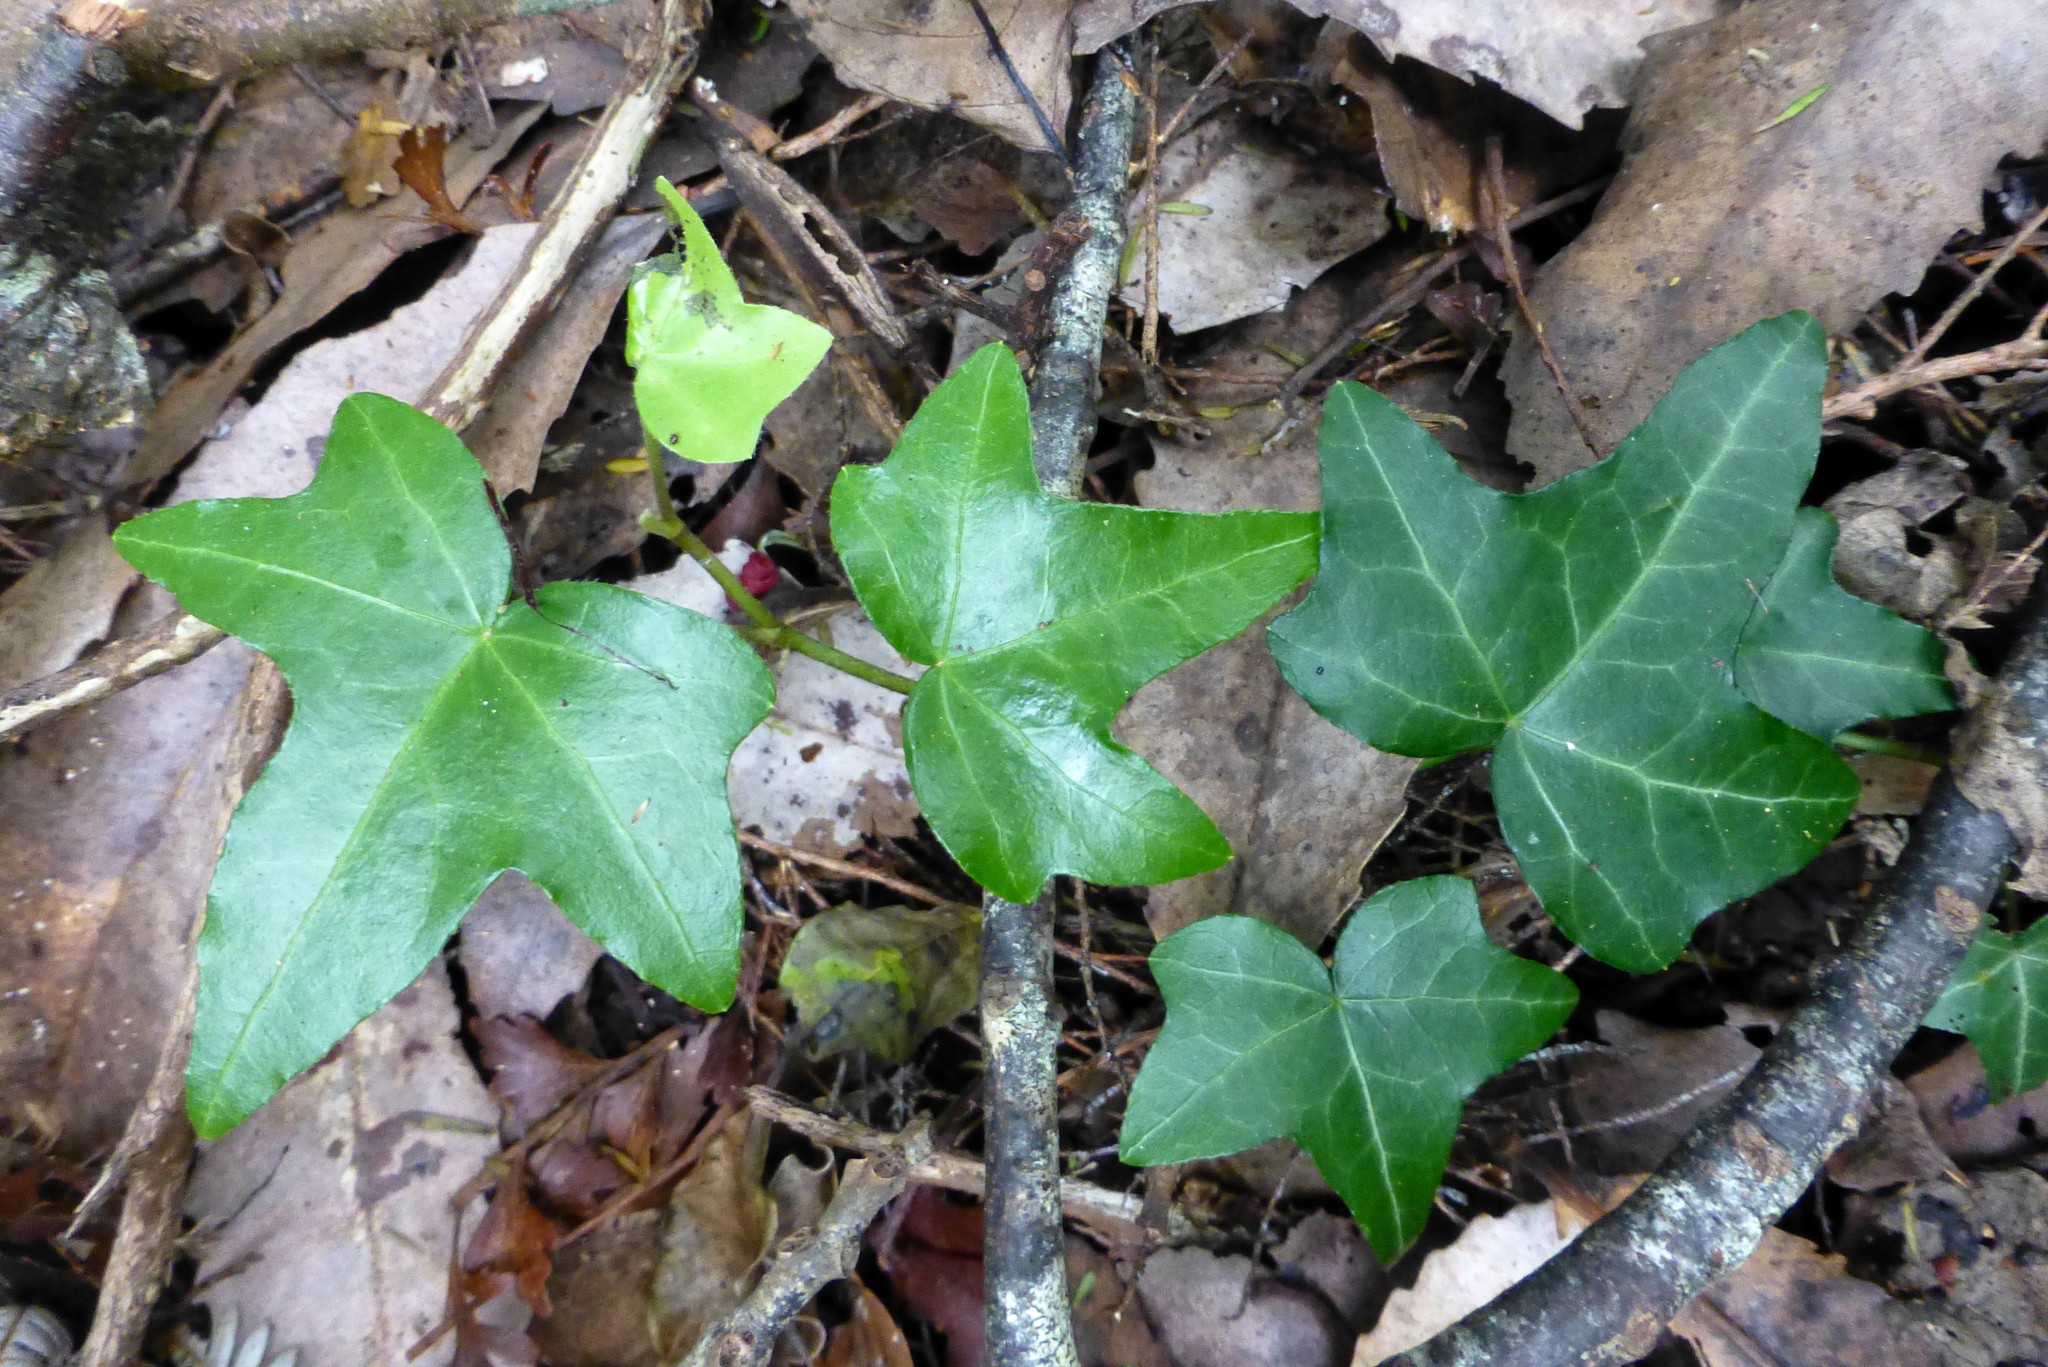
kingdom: Plantae
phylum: Tracheophyta
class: Magnoliopsida
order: Apiales
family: Araliaceae
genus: Hedera
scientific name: Hedera helix
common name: Ivy
